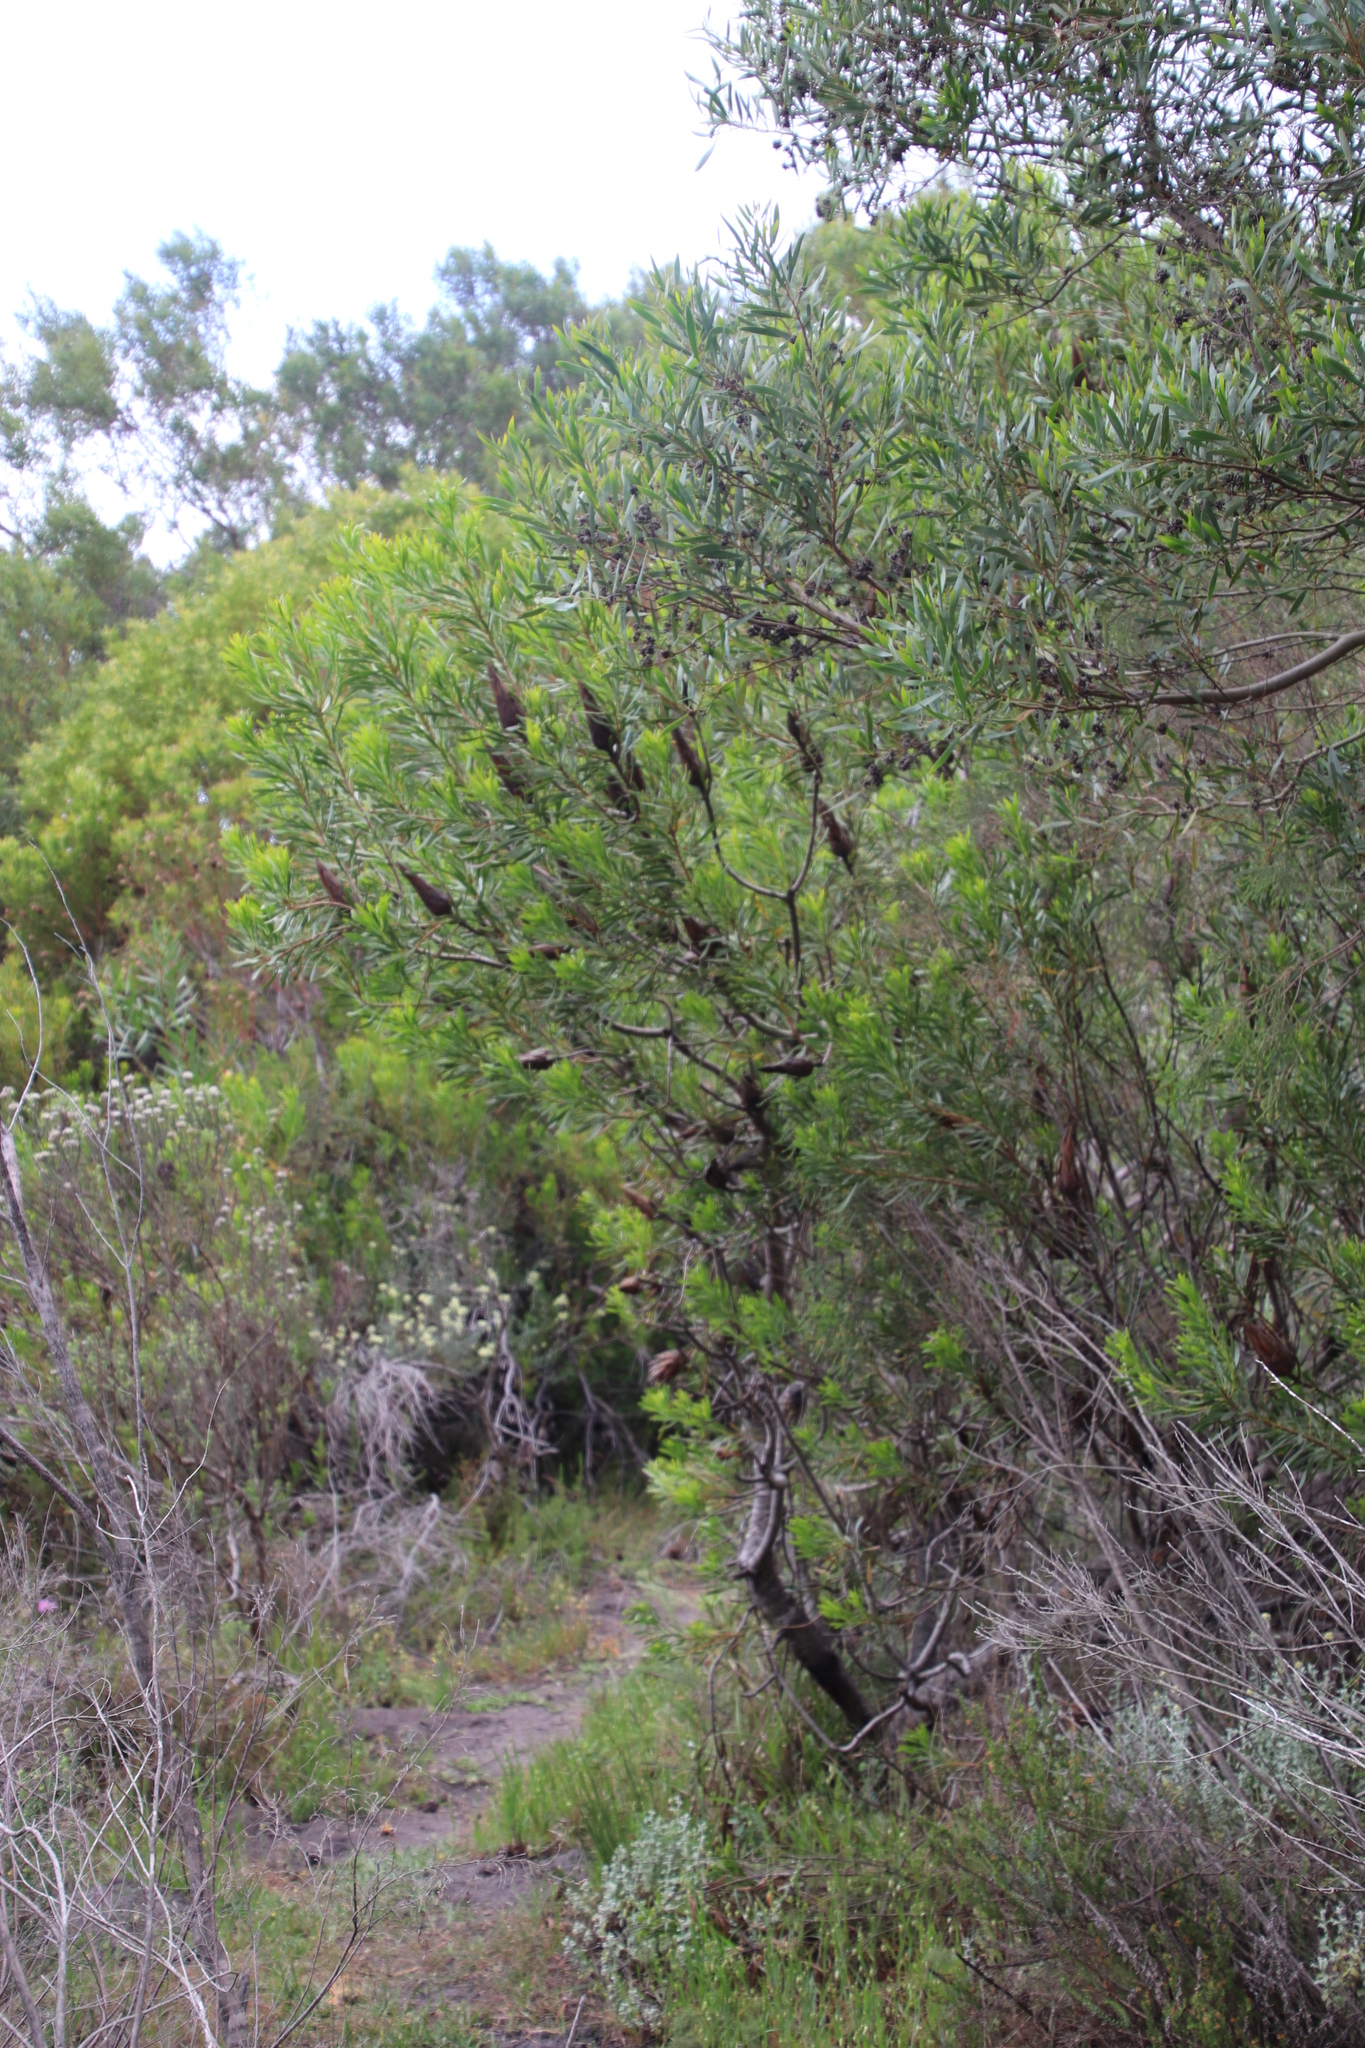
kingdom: Plantae
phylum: Tracheophyta
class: Magnoliopsida
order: Proteales
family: Proteaceae
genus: Protea
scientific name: Protea repens
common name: Sugarbush
